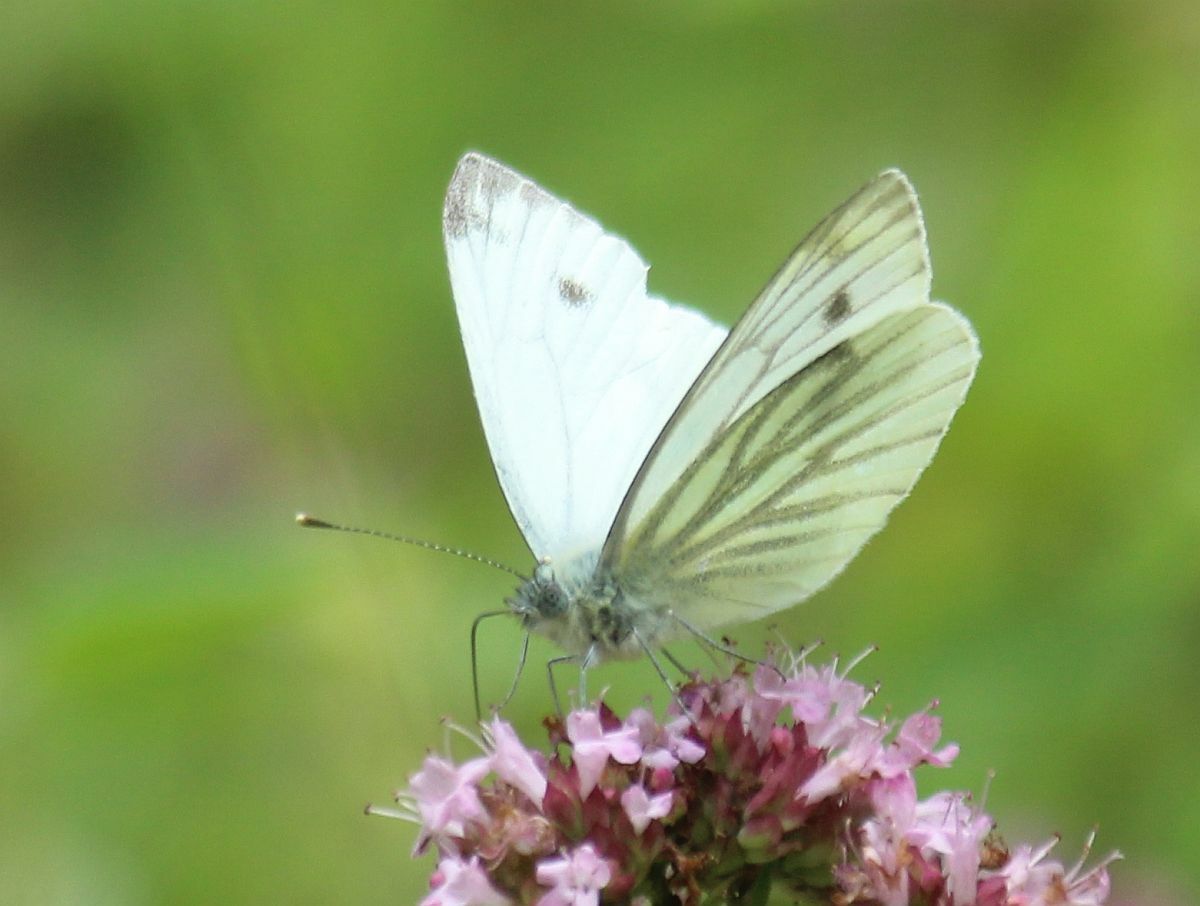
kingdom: Animalia
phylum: Arthropoda
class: Insecta
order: Lepidoptera
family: Pieridae
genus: Pieris
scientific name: Pieris napi
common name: Green-veined white
